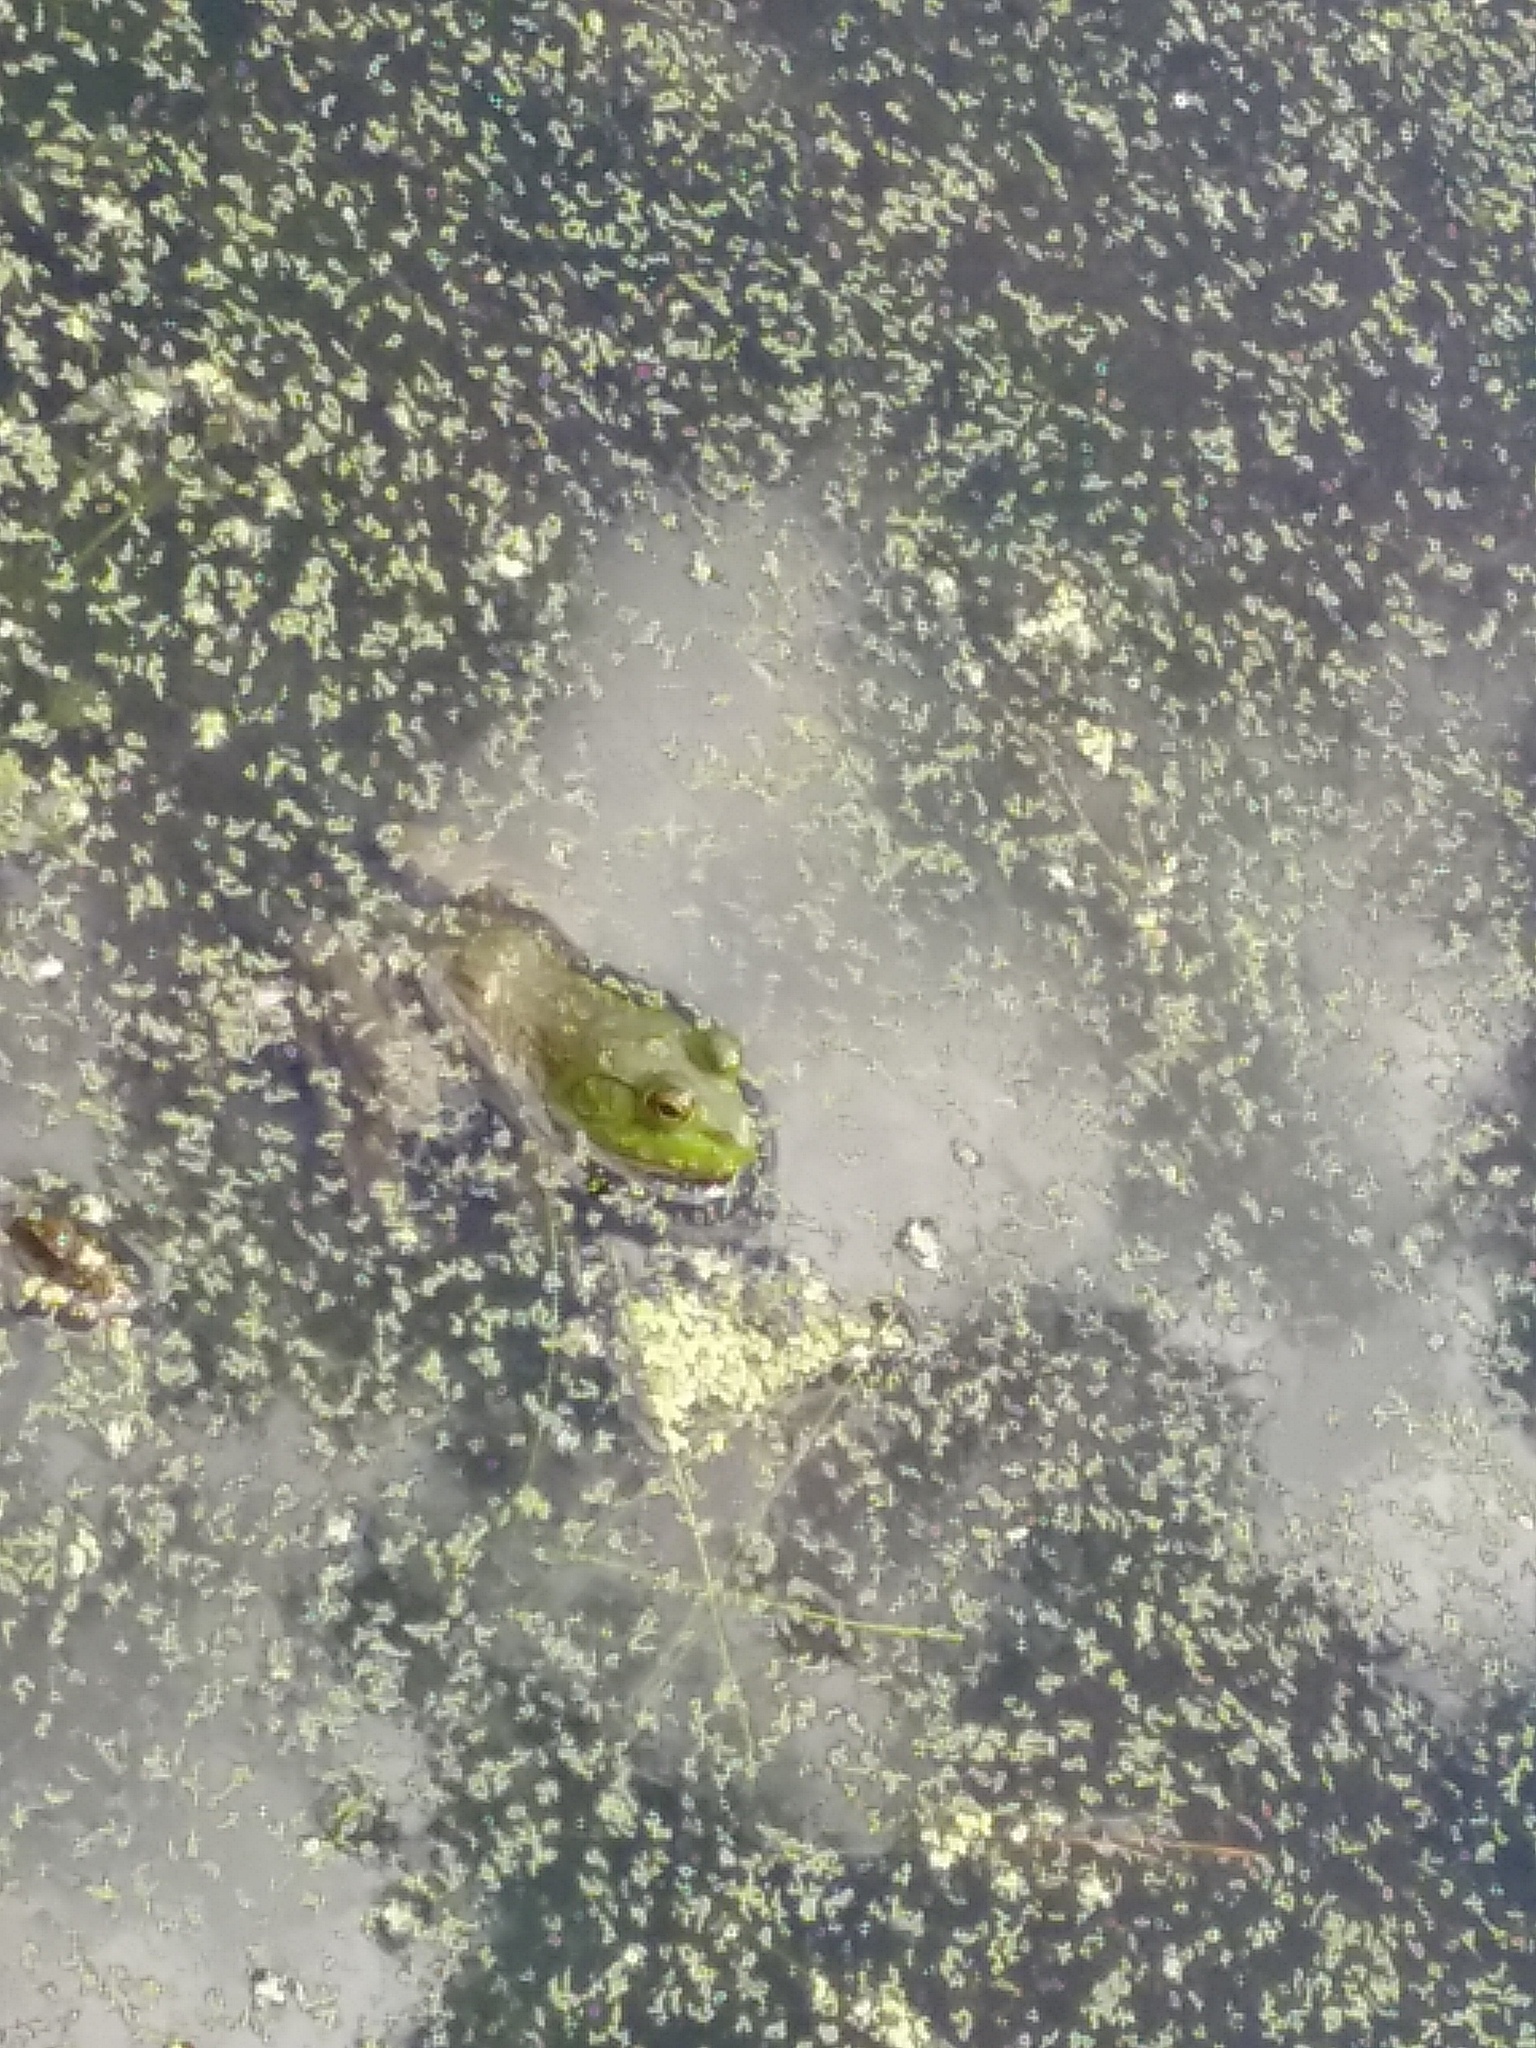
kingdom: Animalia
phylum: Chordata
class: Amphibia
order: Anura
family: Ranidae
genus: Lithobates
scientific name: Lithobates catesbeianus
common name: American bullfrog
